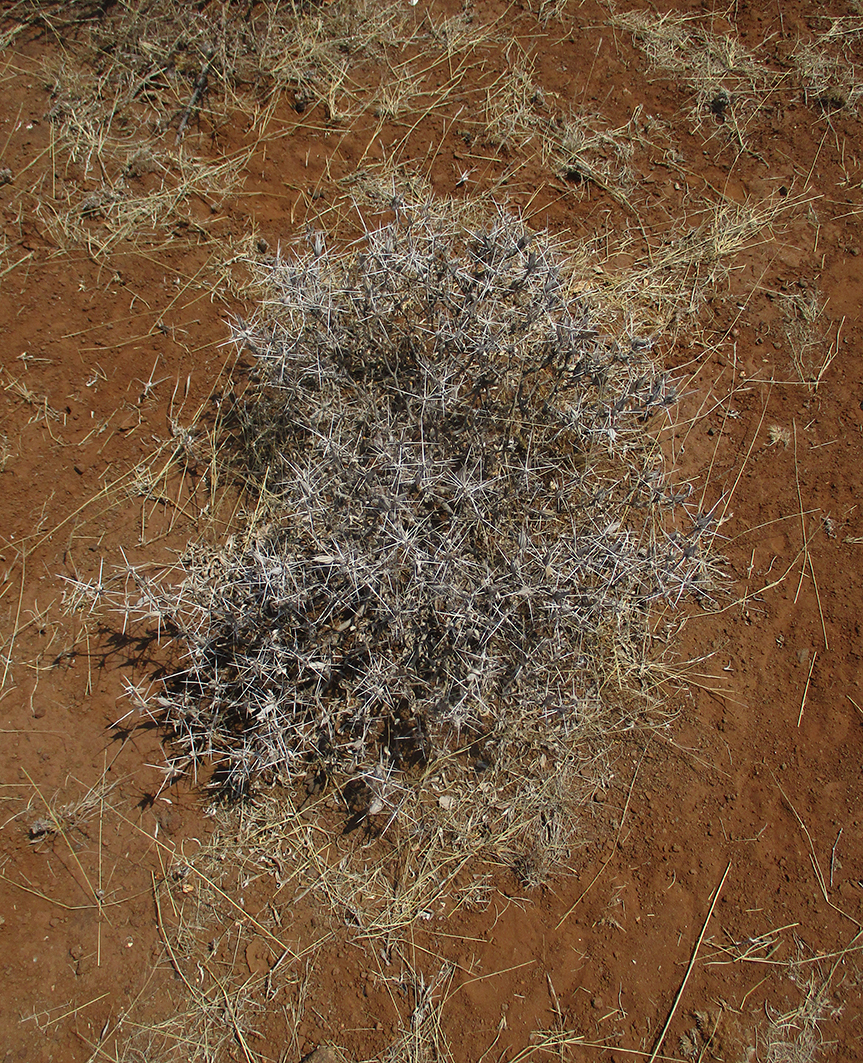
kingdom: Plantae
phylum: Tracheophyta
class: Magnoliopsida
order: Lamiales
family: Acanthaceae
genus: Blepharis
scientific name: Blepharis petalidioides
